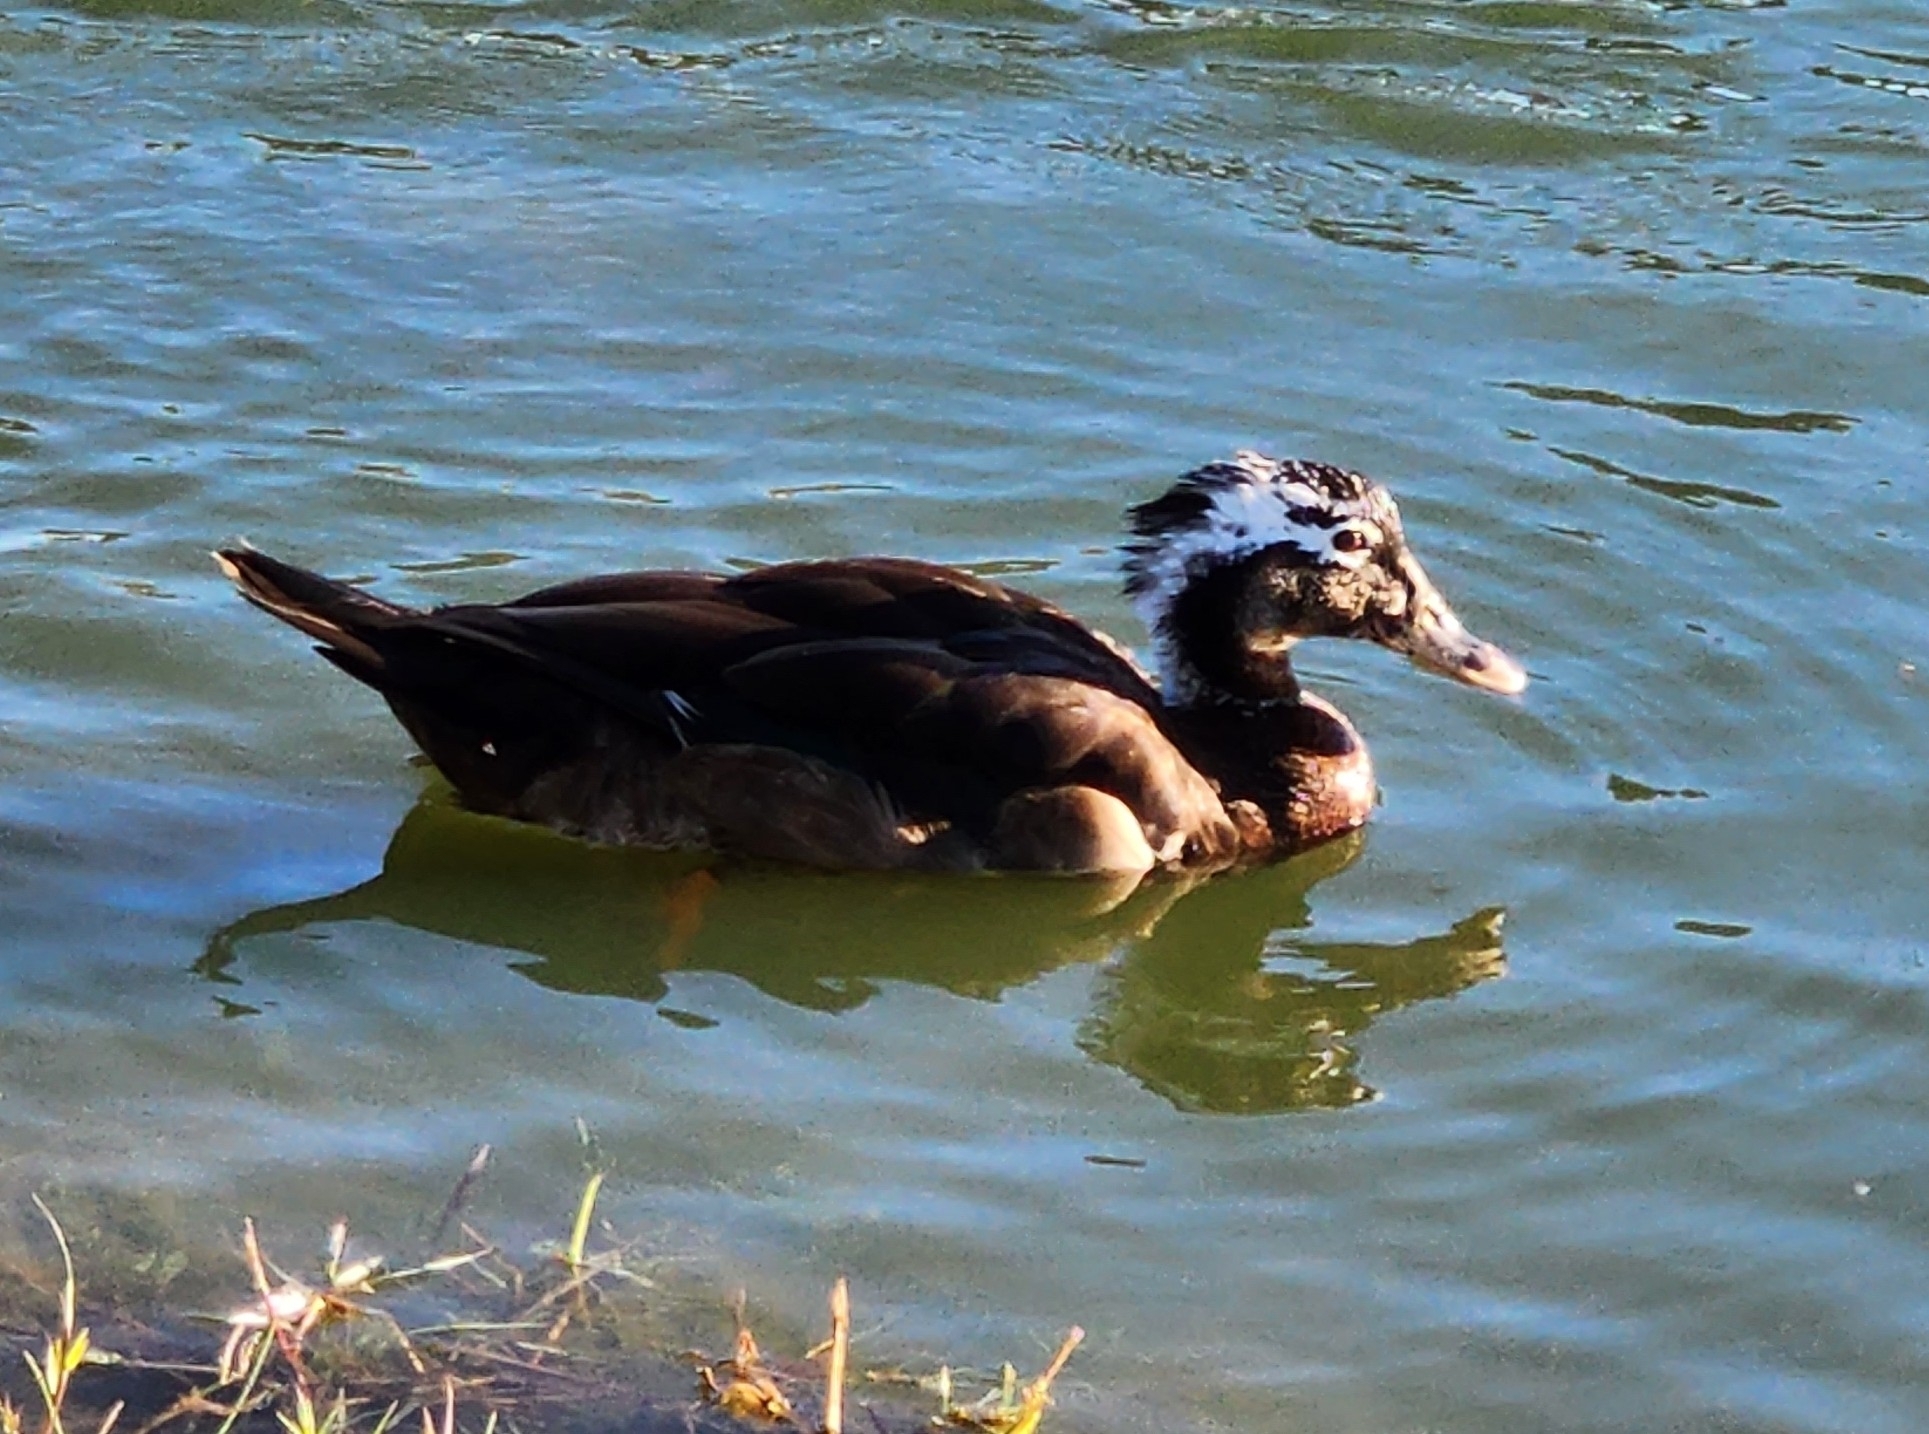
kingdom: Animalia
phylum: Chordata
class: Aves
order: Anseriformes
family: Anatidae
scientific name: Anatidae
